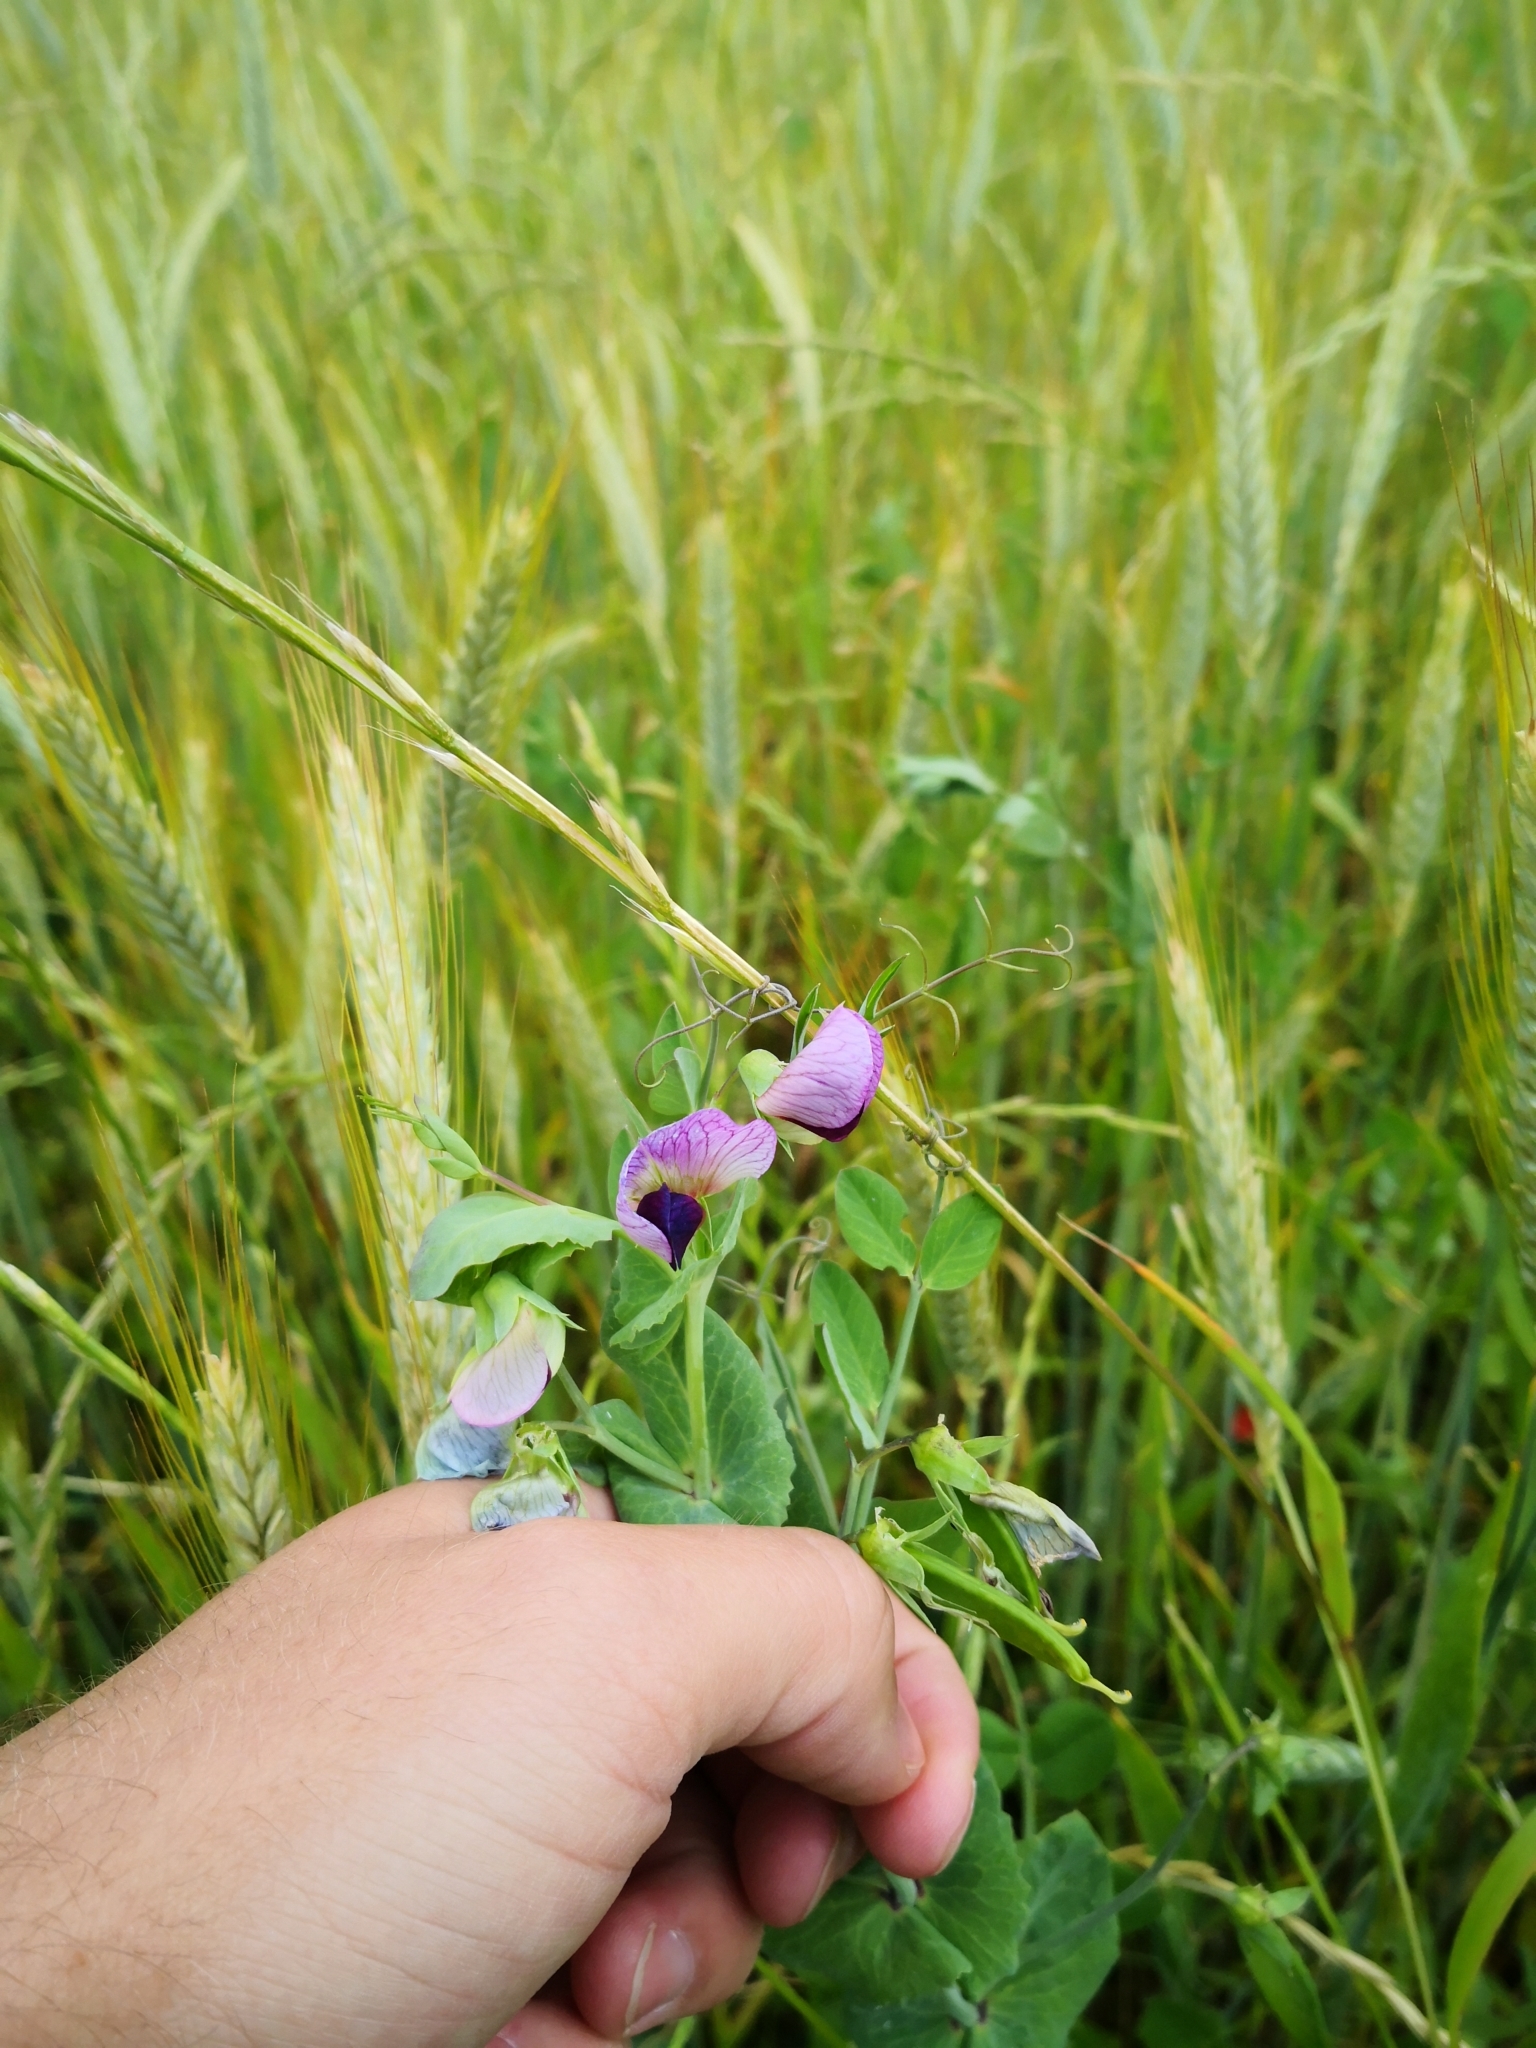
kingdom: Plantae
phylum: Tracheophyta
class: Magnoliopsida
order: Fabales
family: Fabaceae
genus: Lathyrus
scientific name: Lathyrus oleraceus
